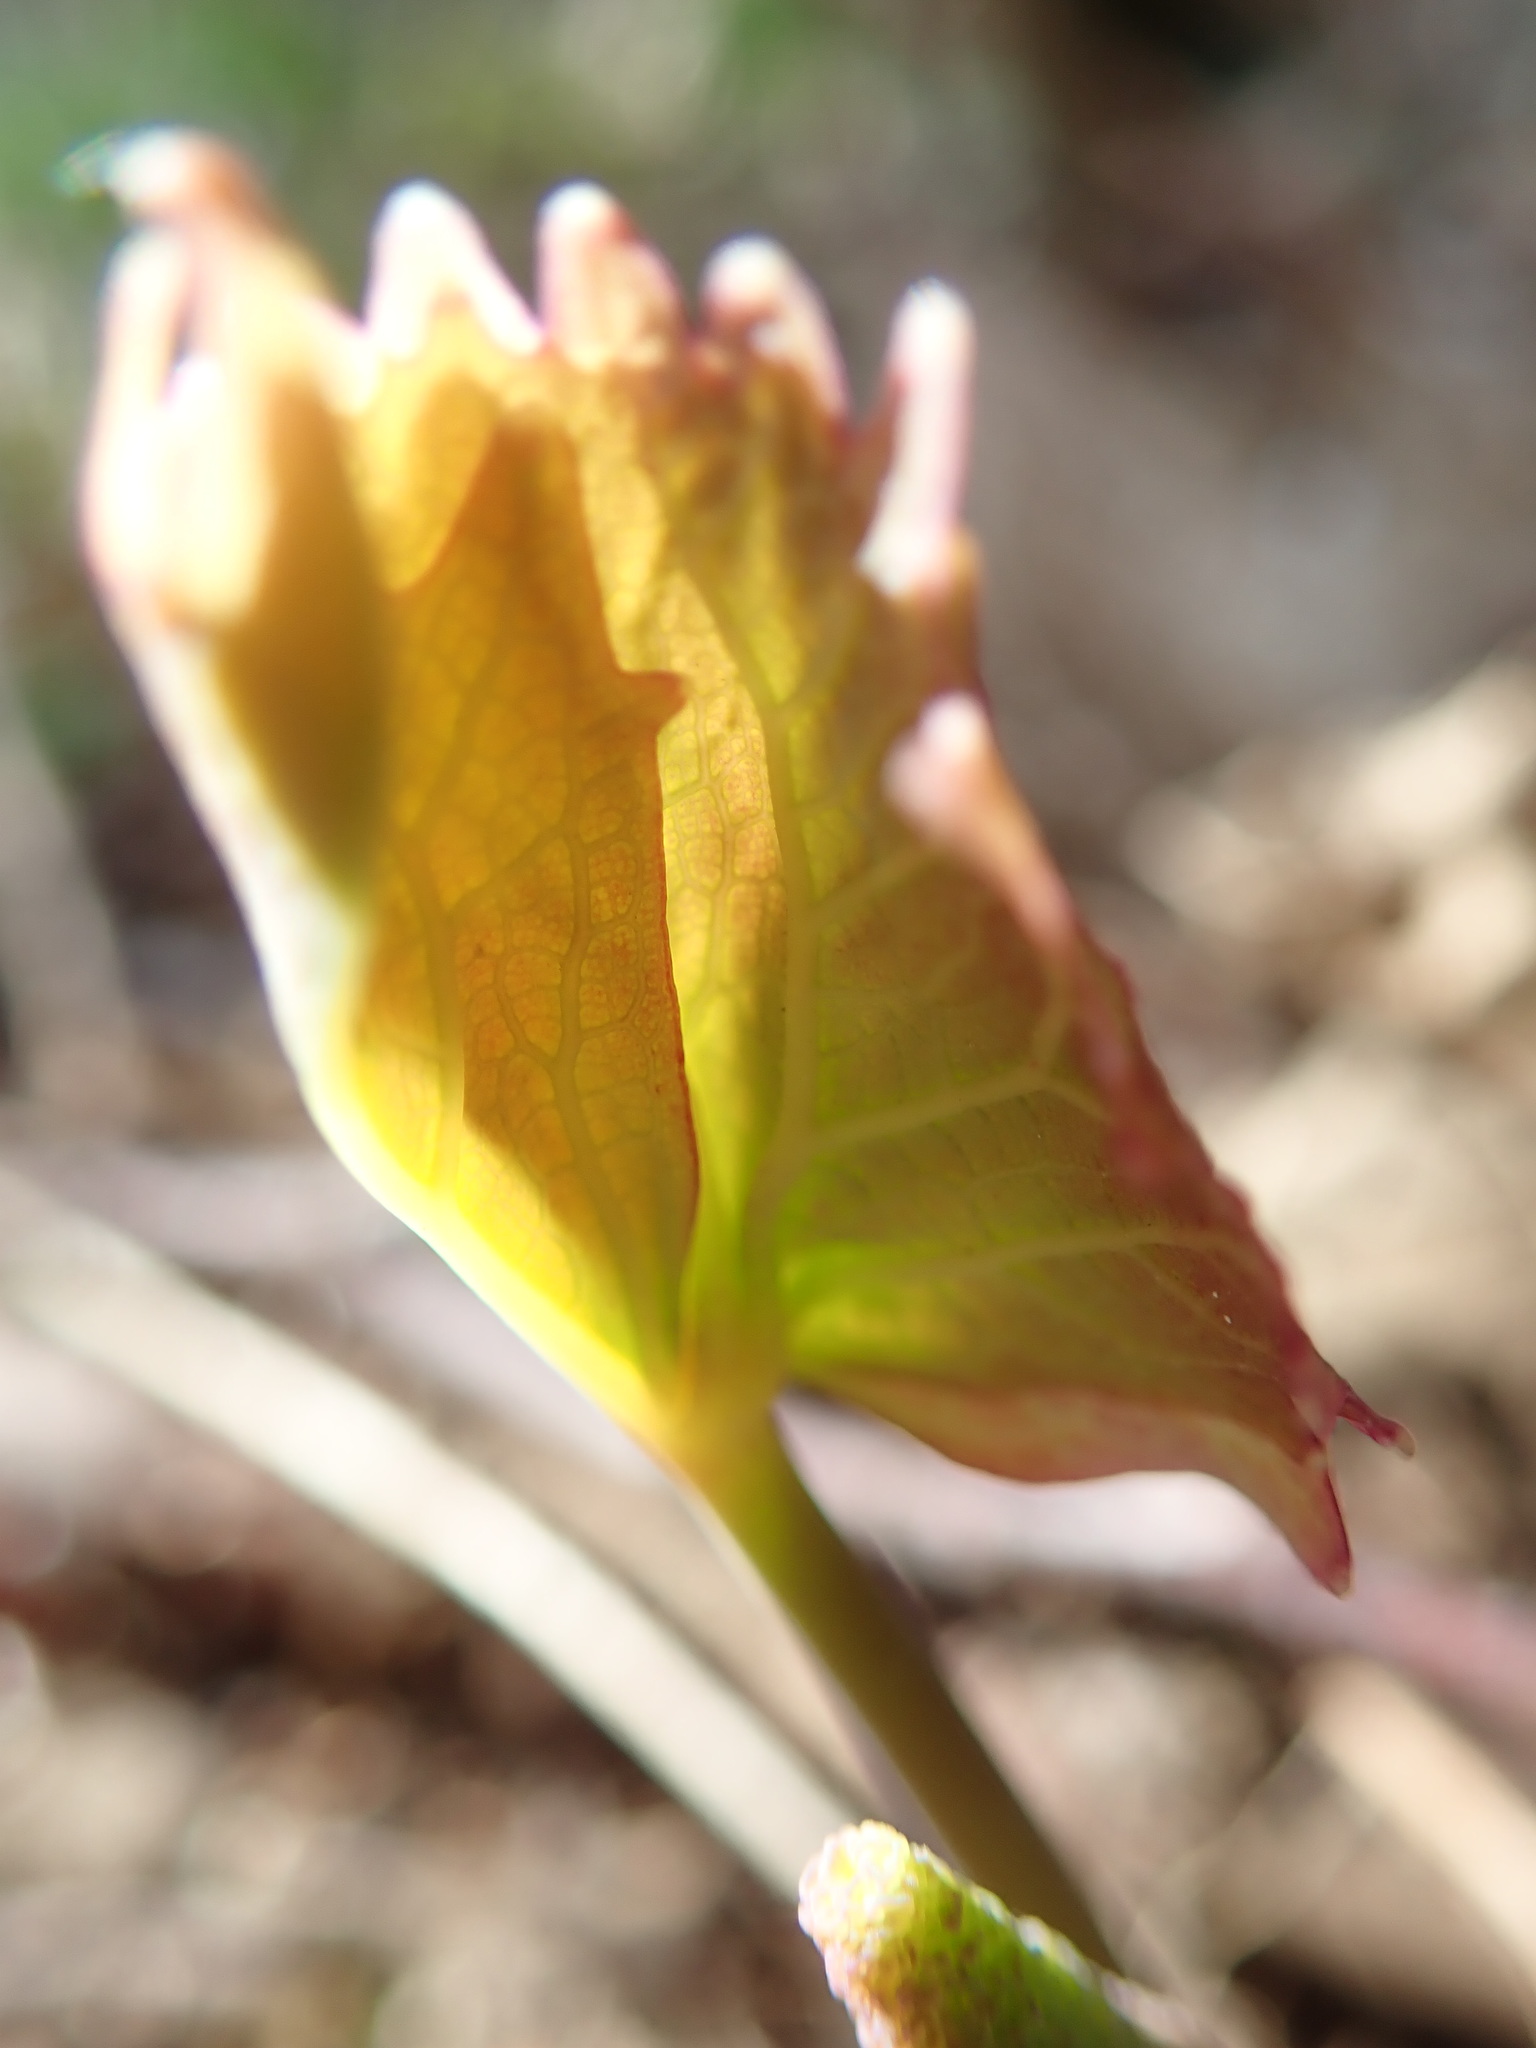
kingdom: Plantae
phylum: Tracheophyta
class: Magnoliopsida
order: Ranunculales
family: Berberidaceae
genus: Achlys
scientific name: Achlys triphylla
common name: Vanilla-leaf
